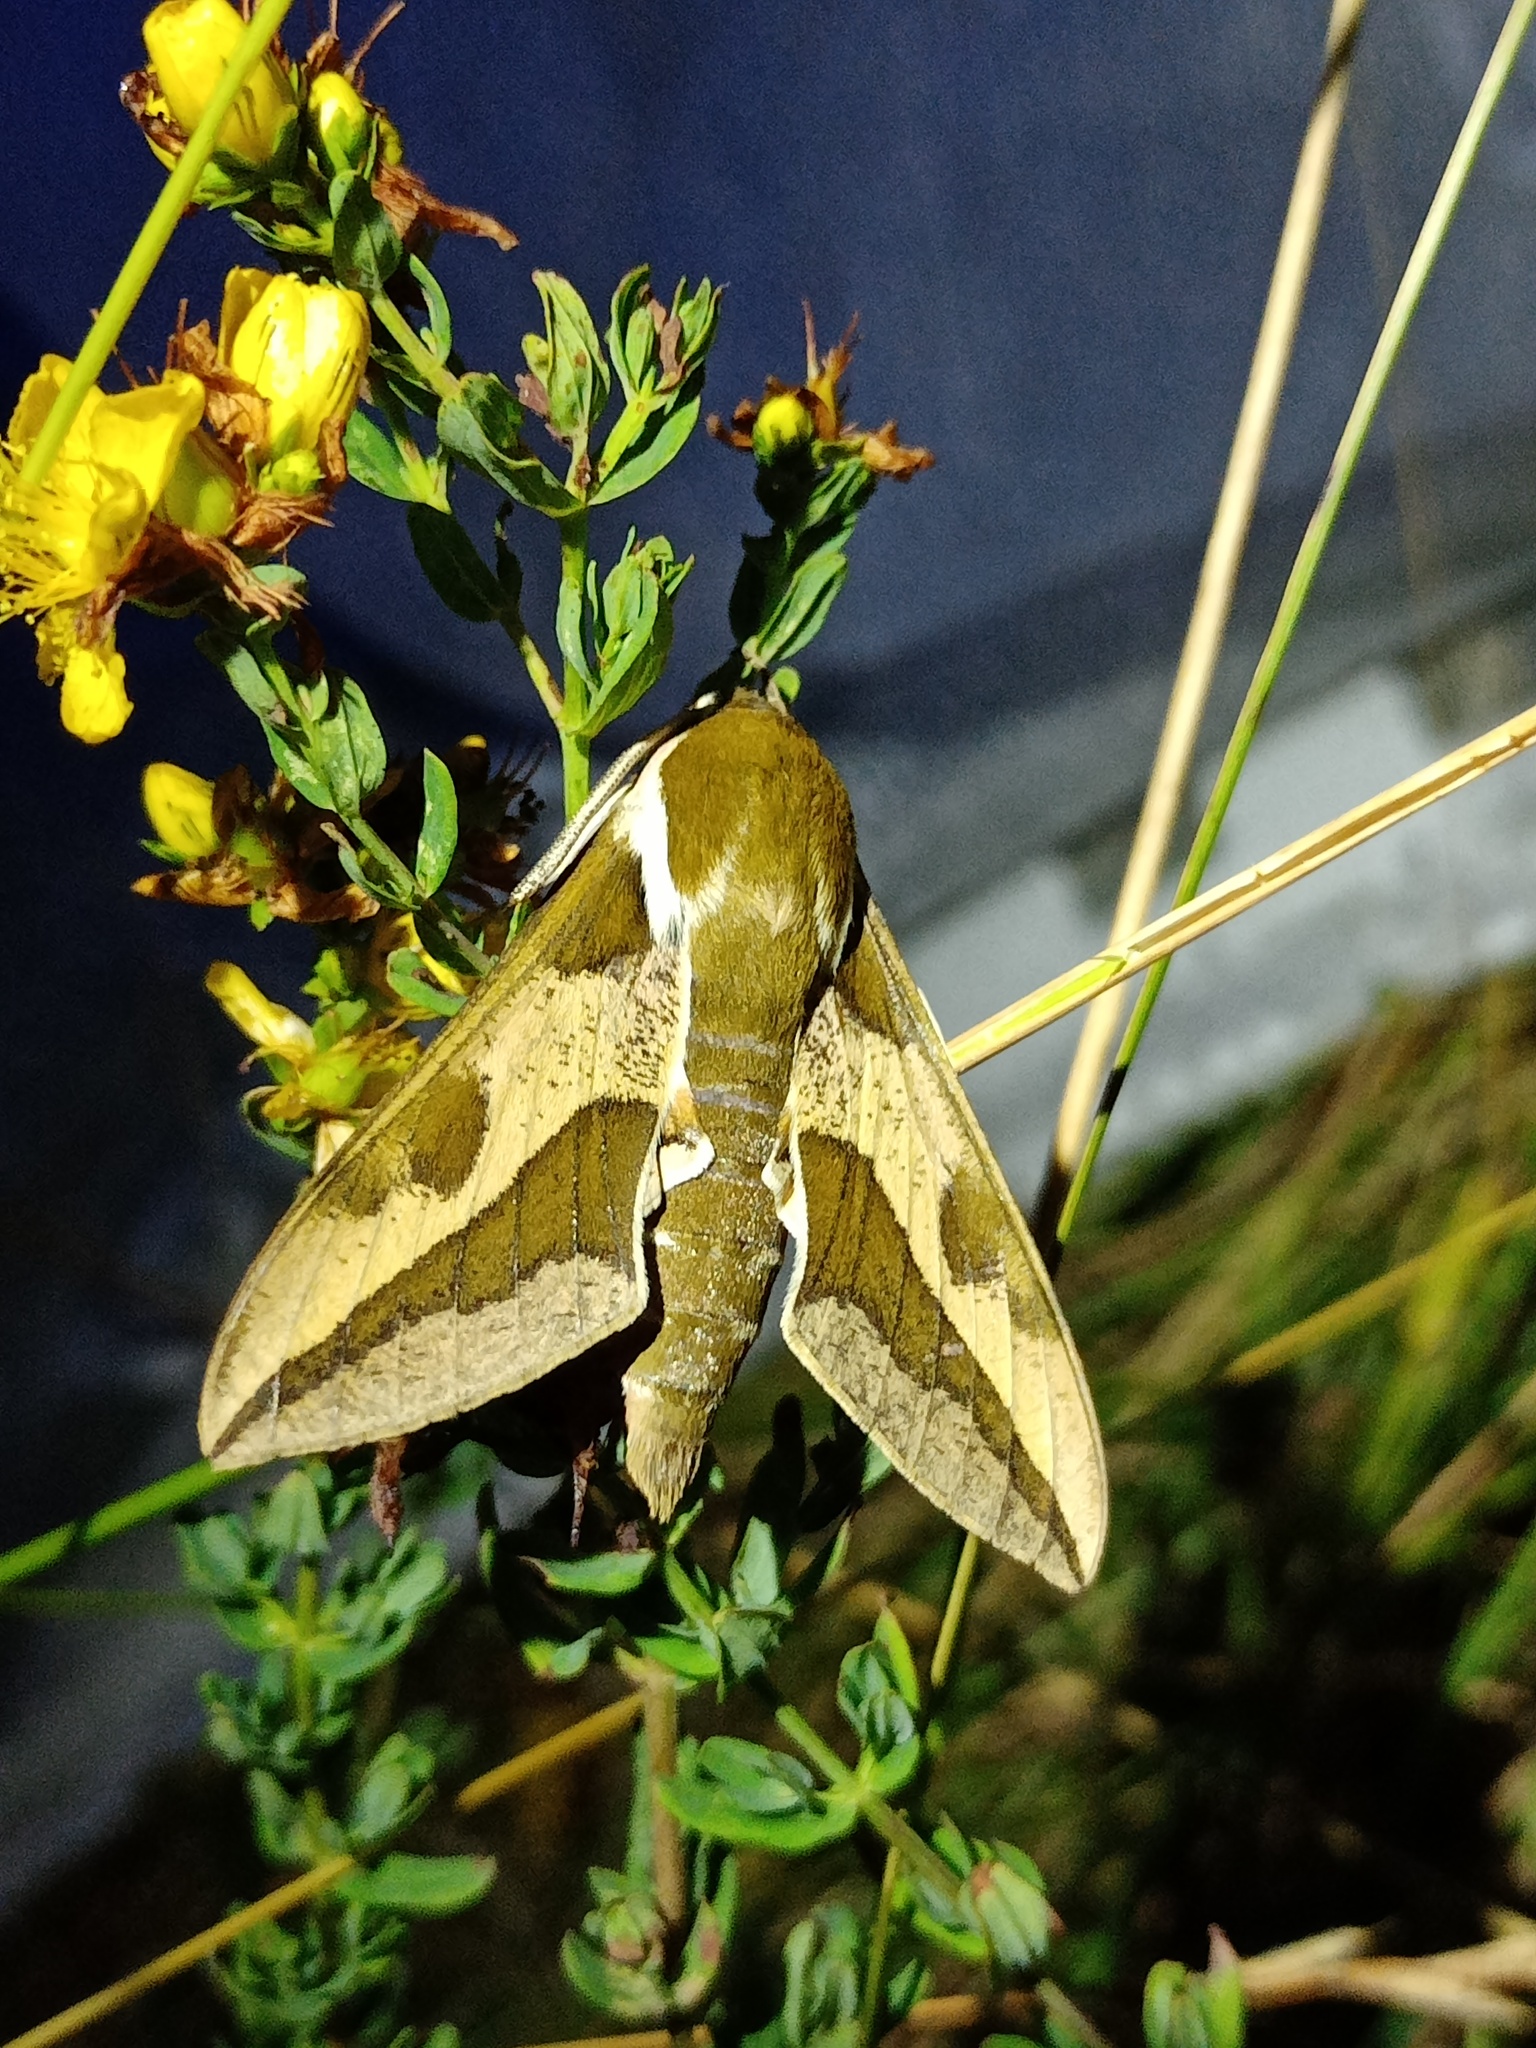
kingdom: Animalia
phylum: Arthropoda
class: Insecta
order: Lepidoptera
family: Sphingidae
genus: Hyles
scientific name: Hyles euphorbiae
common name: Spurge hawk-moth
